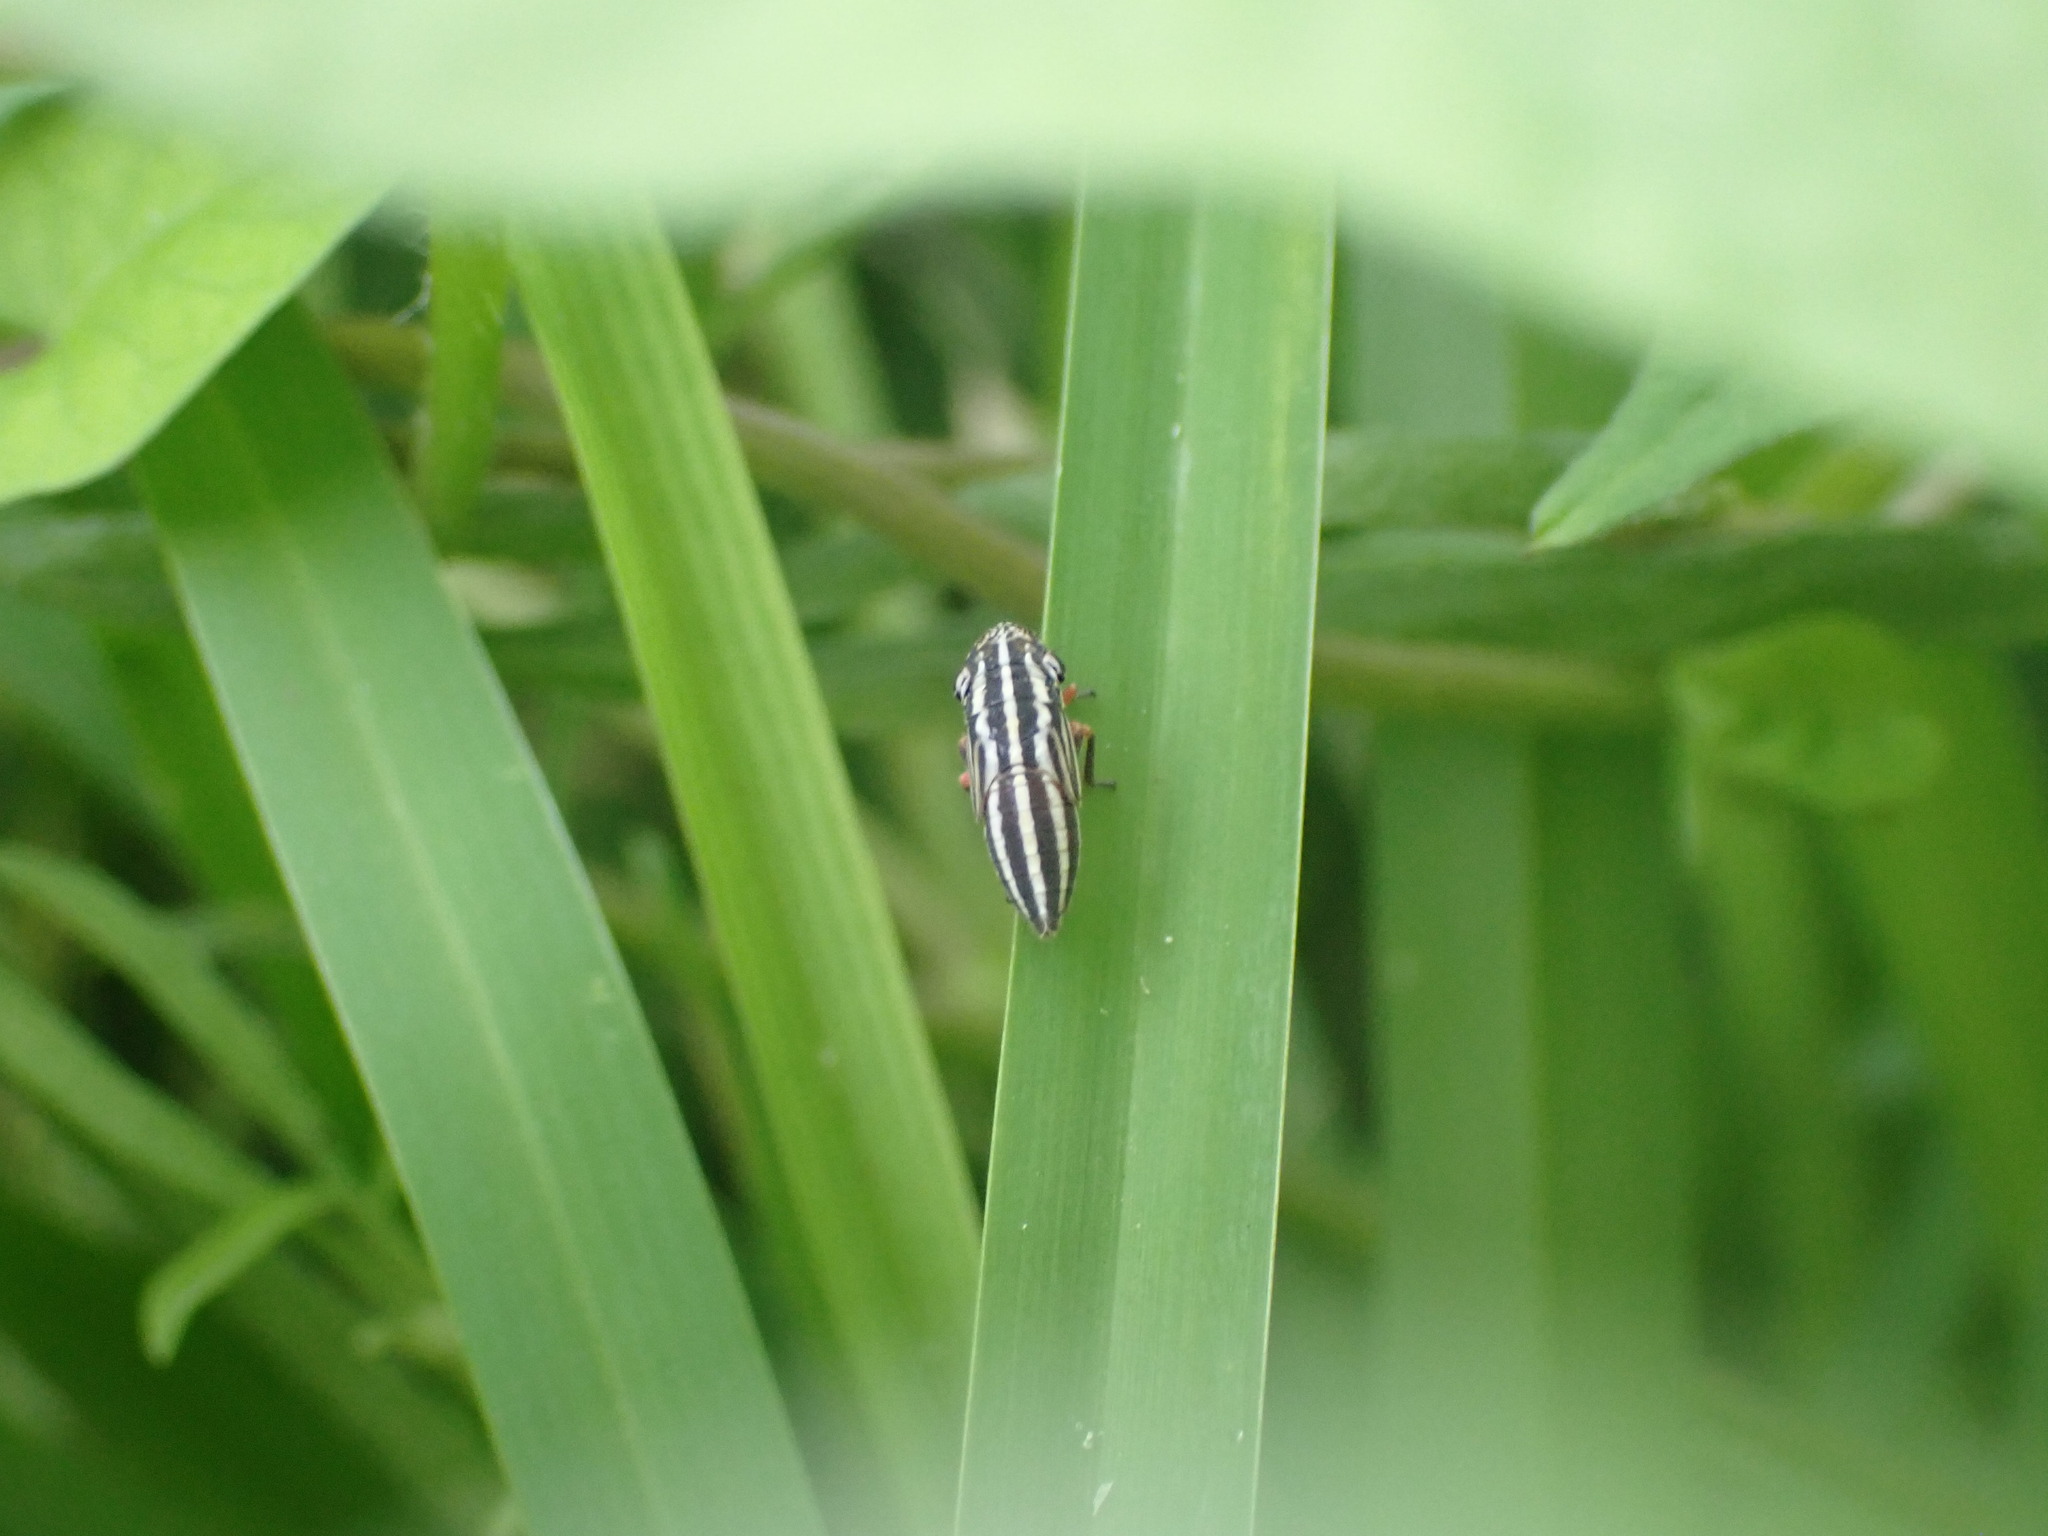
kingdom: Animalia
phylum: Arthropoda
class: Insecta
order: Hemiptera
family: Cicadellidae
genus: Cuerna
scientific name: Cuerna costalis
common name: Lateral-lined sharpshooter
